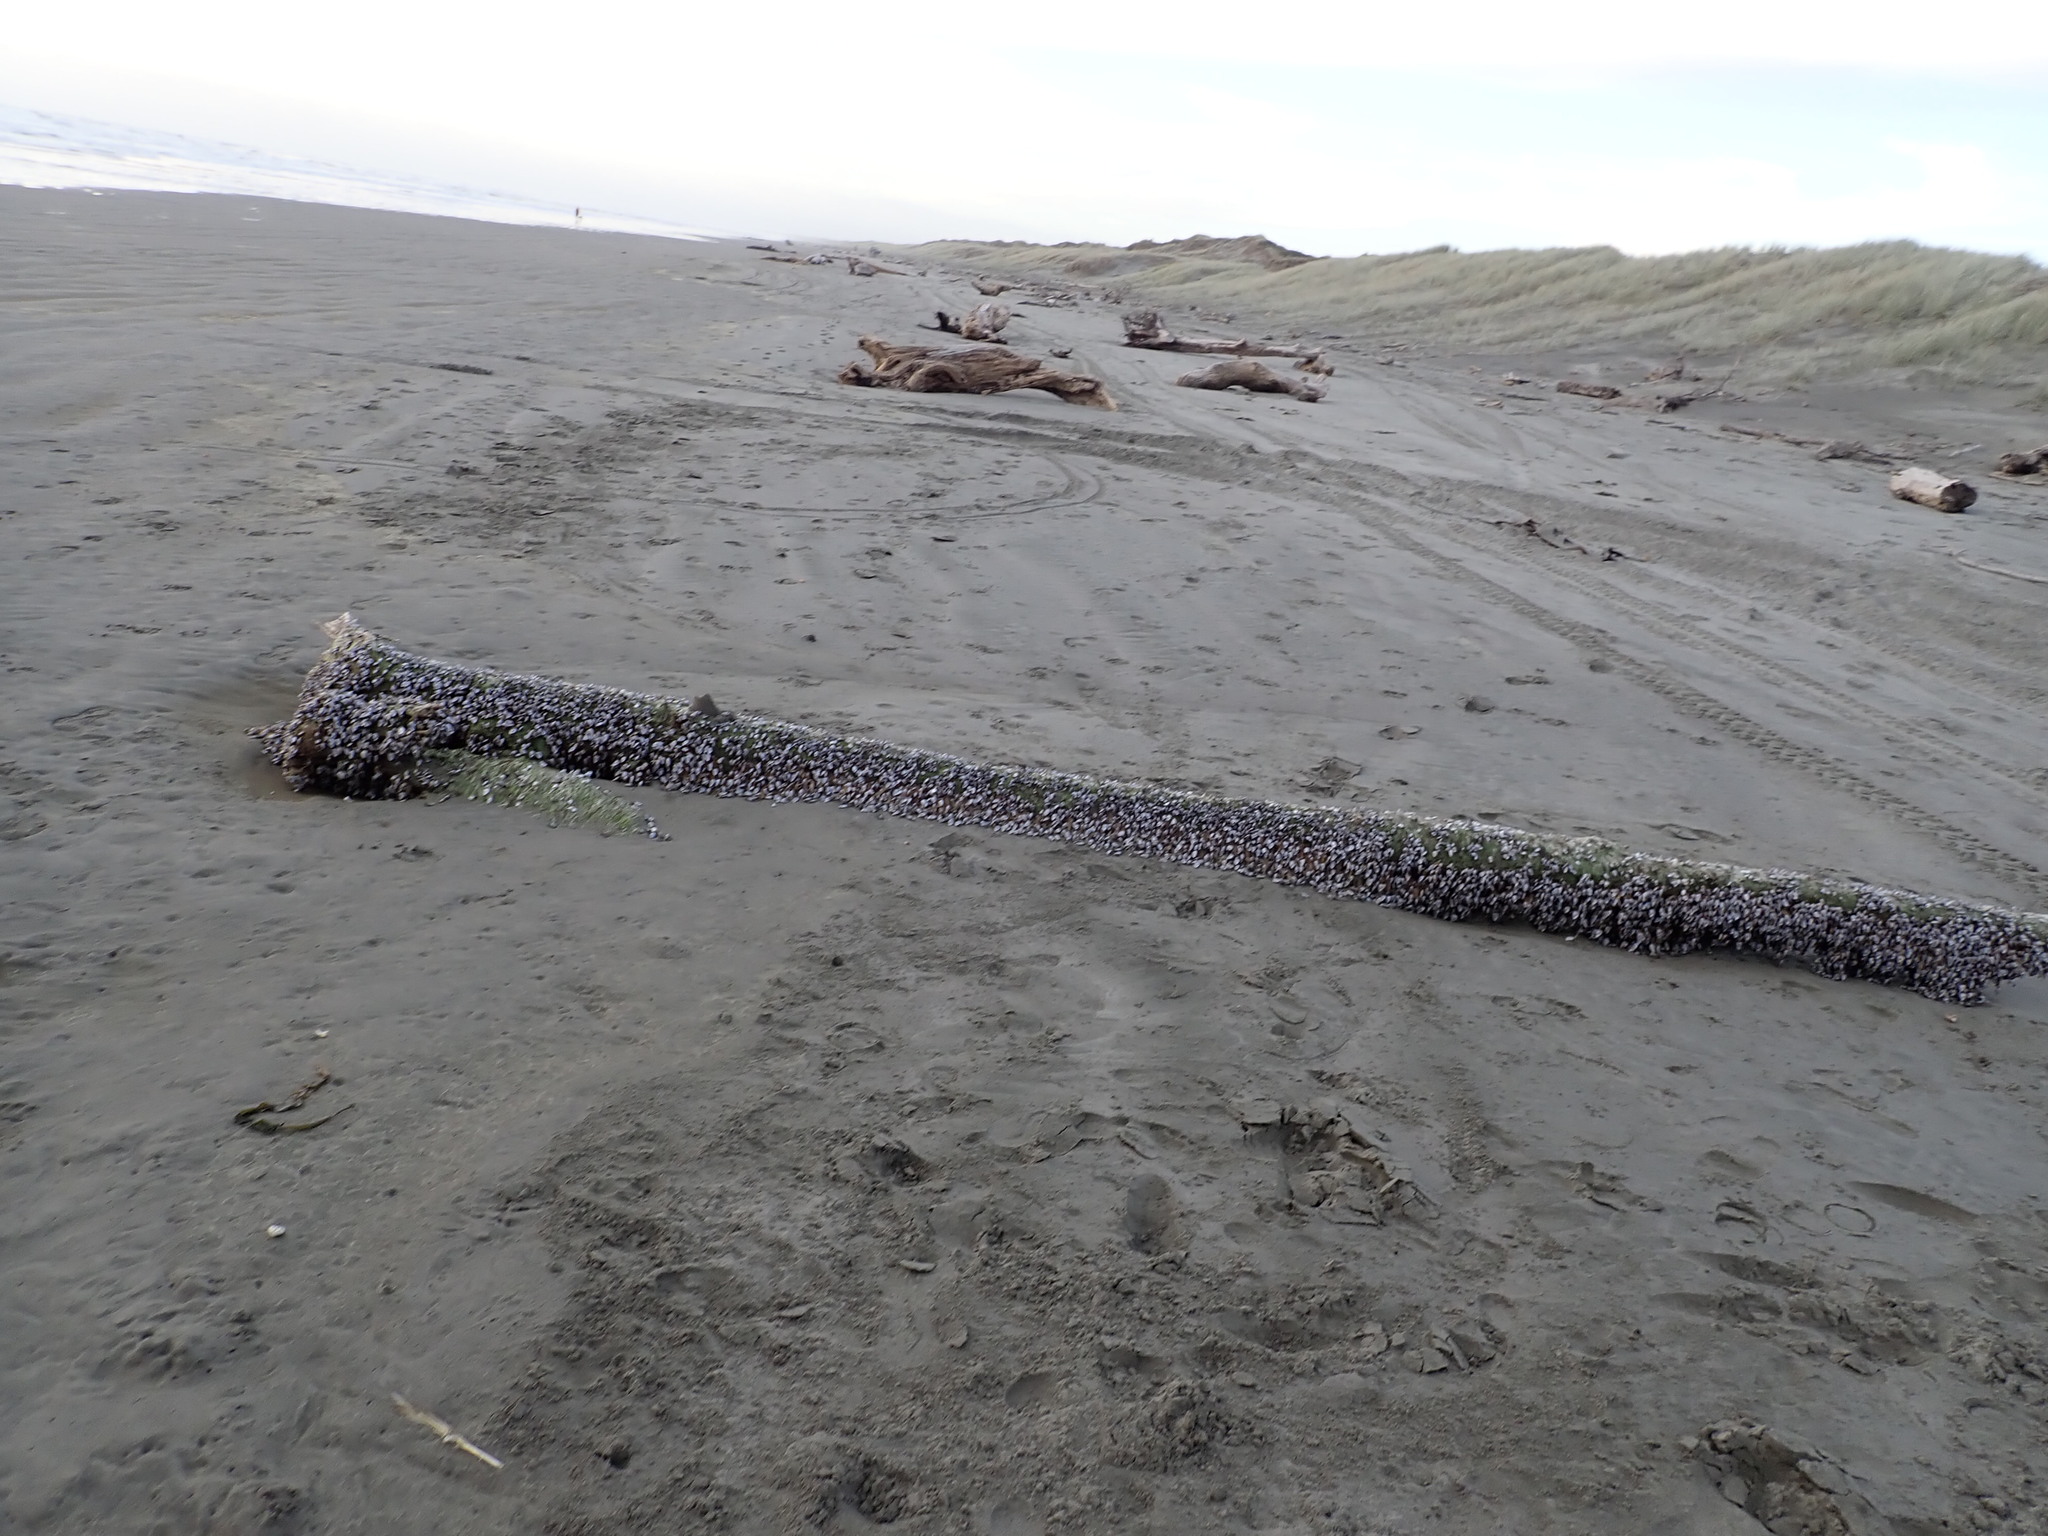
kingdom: Animalia
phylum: Arthropoda
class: Maxillopoda
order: Pedunculata
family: Lepadidae
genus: Lepas
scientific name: Lepas anatifera
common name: Common goose barnacle
